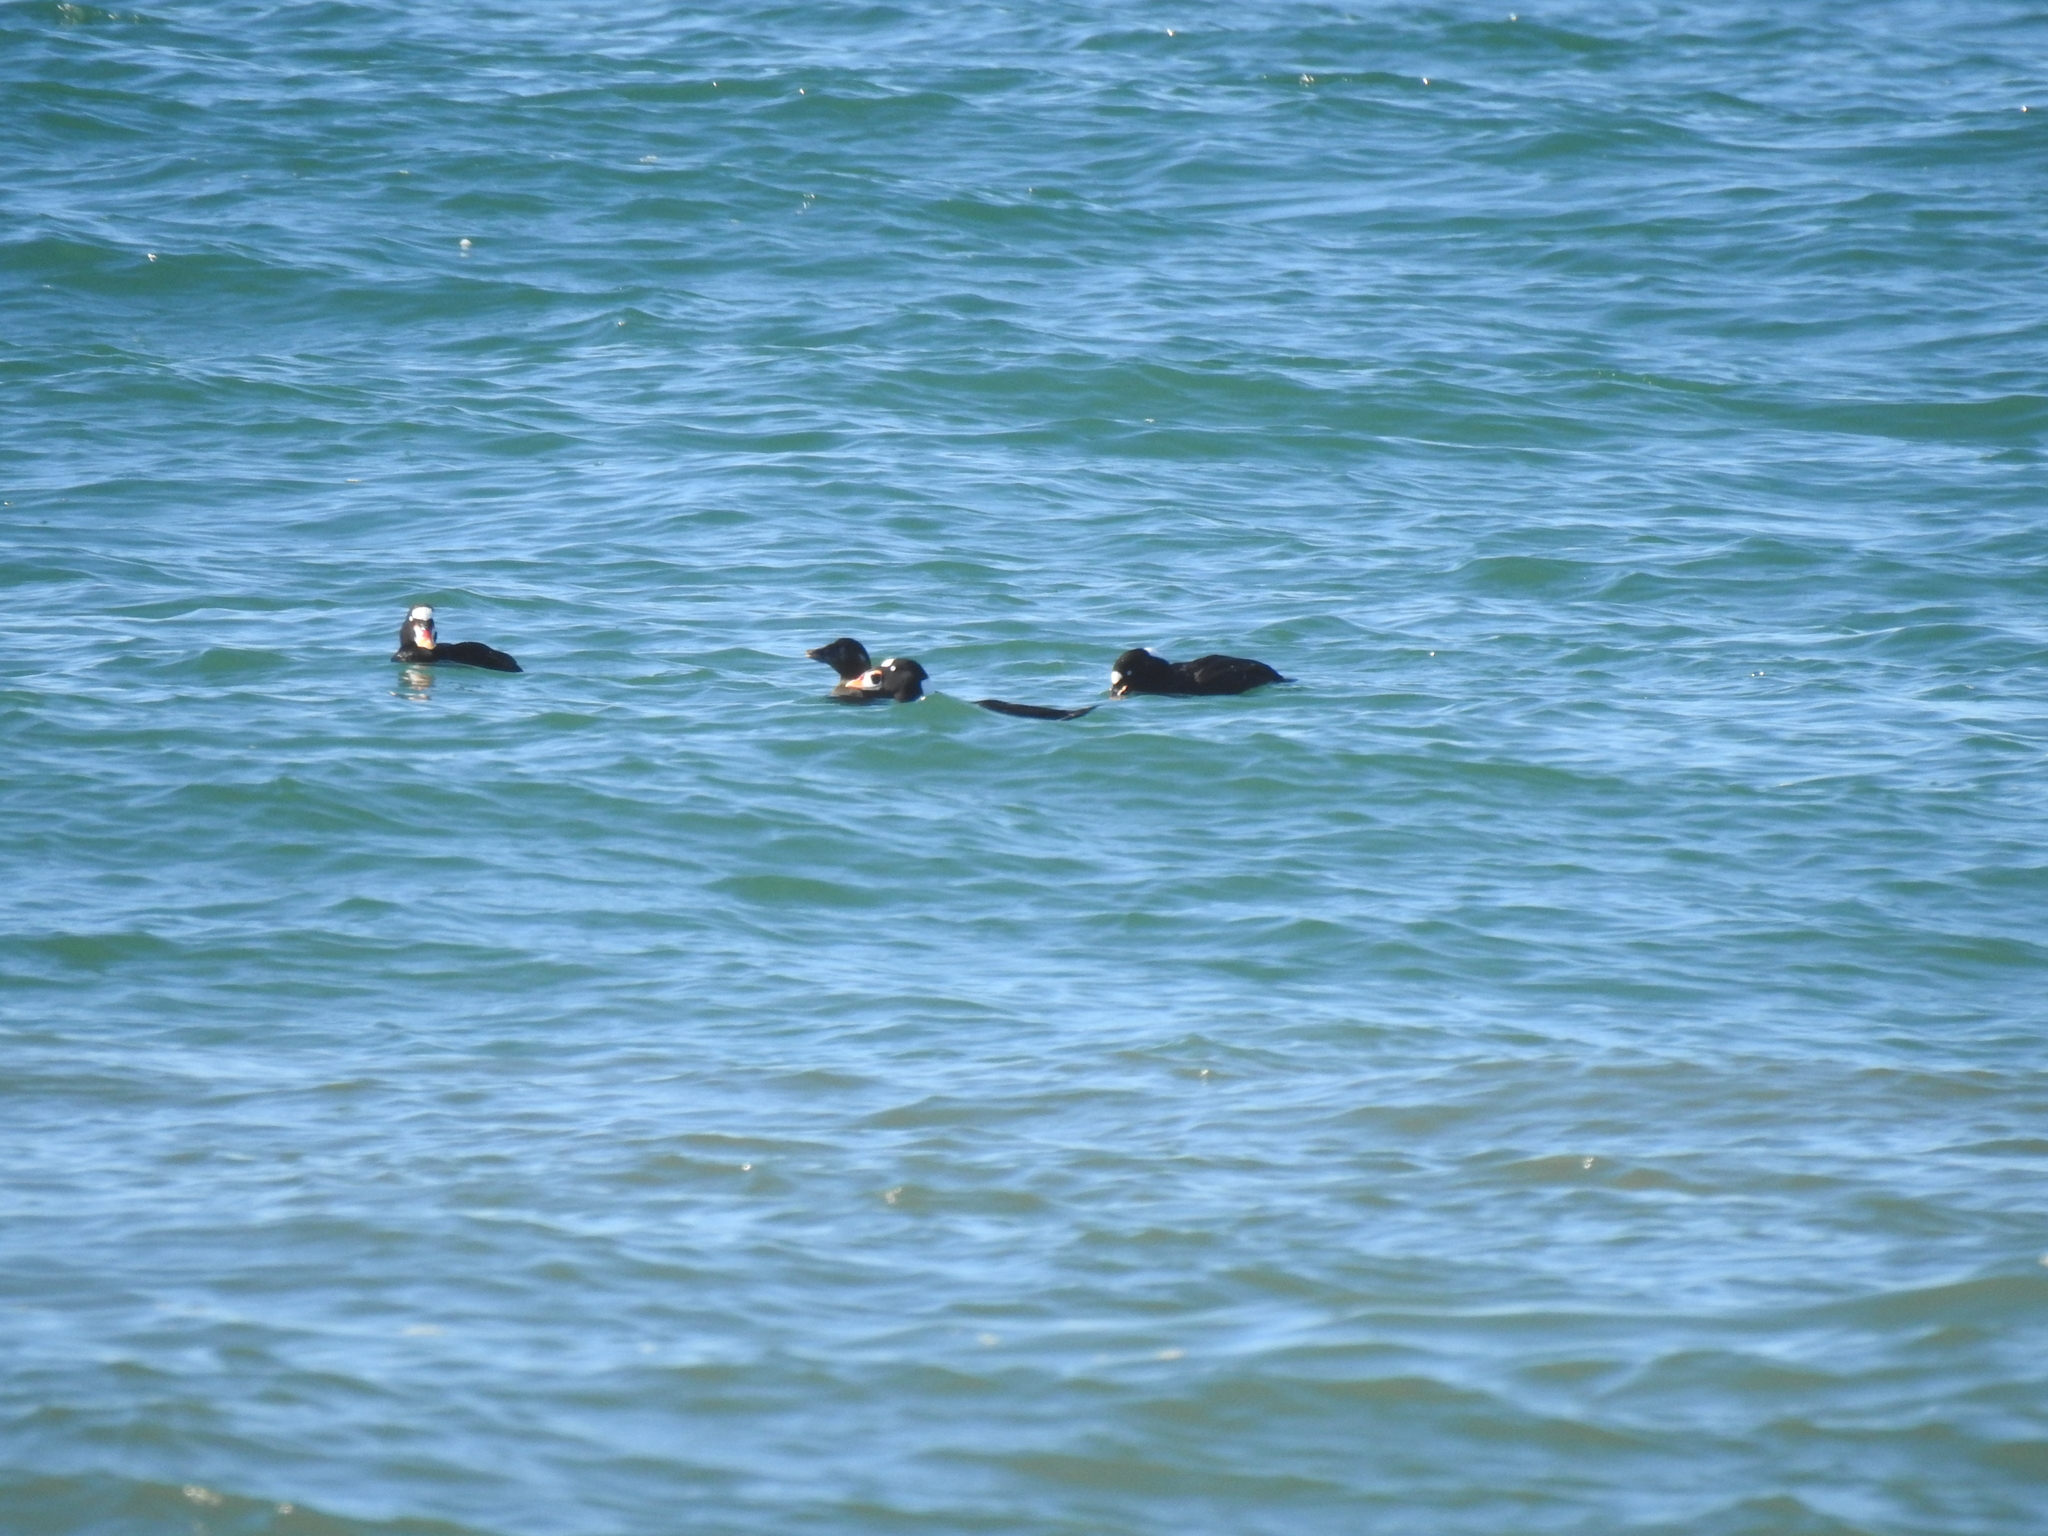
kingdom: Animalia
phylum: Chordata
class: Aves
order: Anseriformes
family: Anatidae
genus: Melanitta
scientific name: Melanitta perspicillata
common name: Surf scoter
